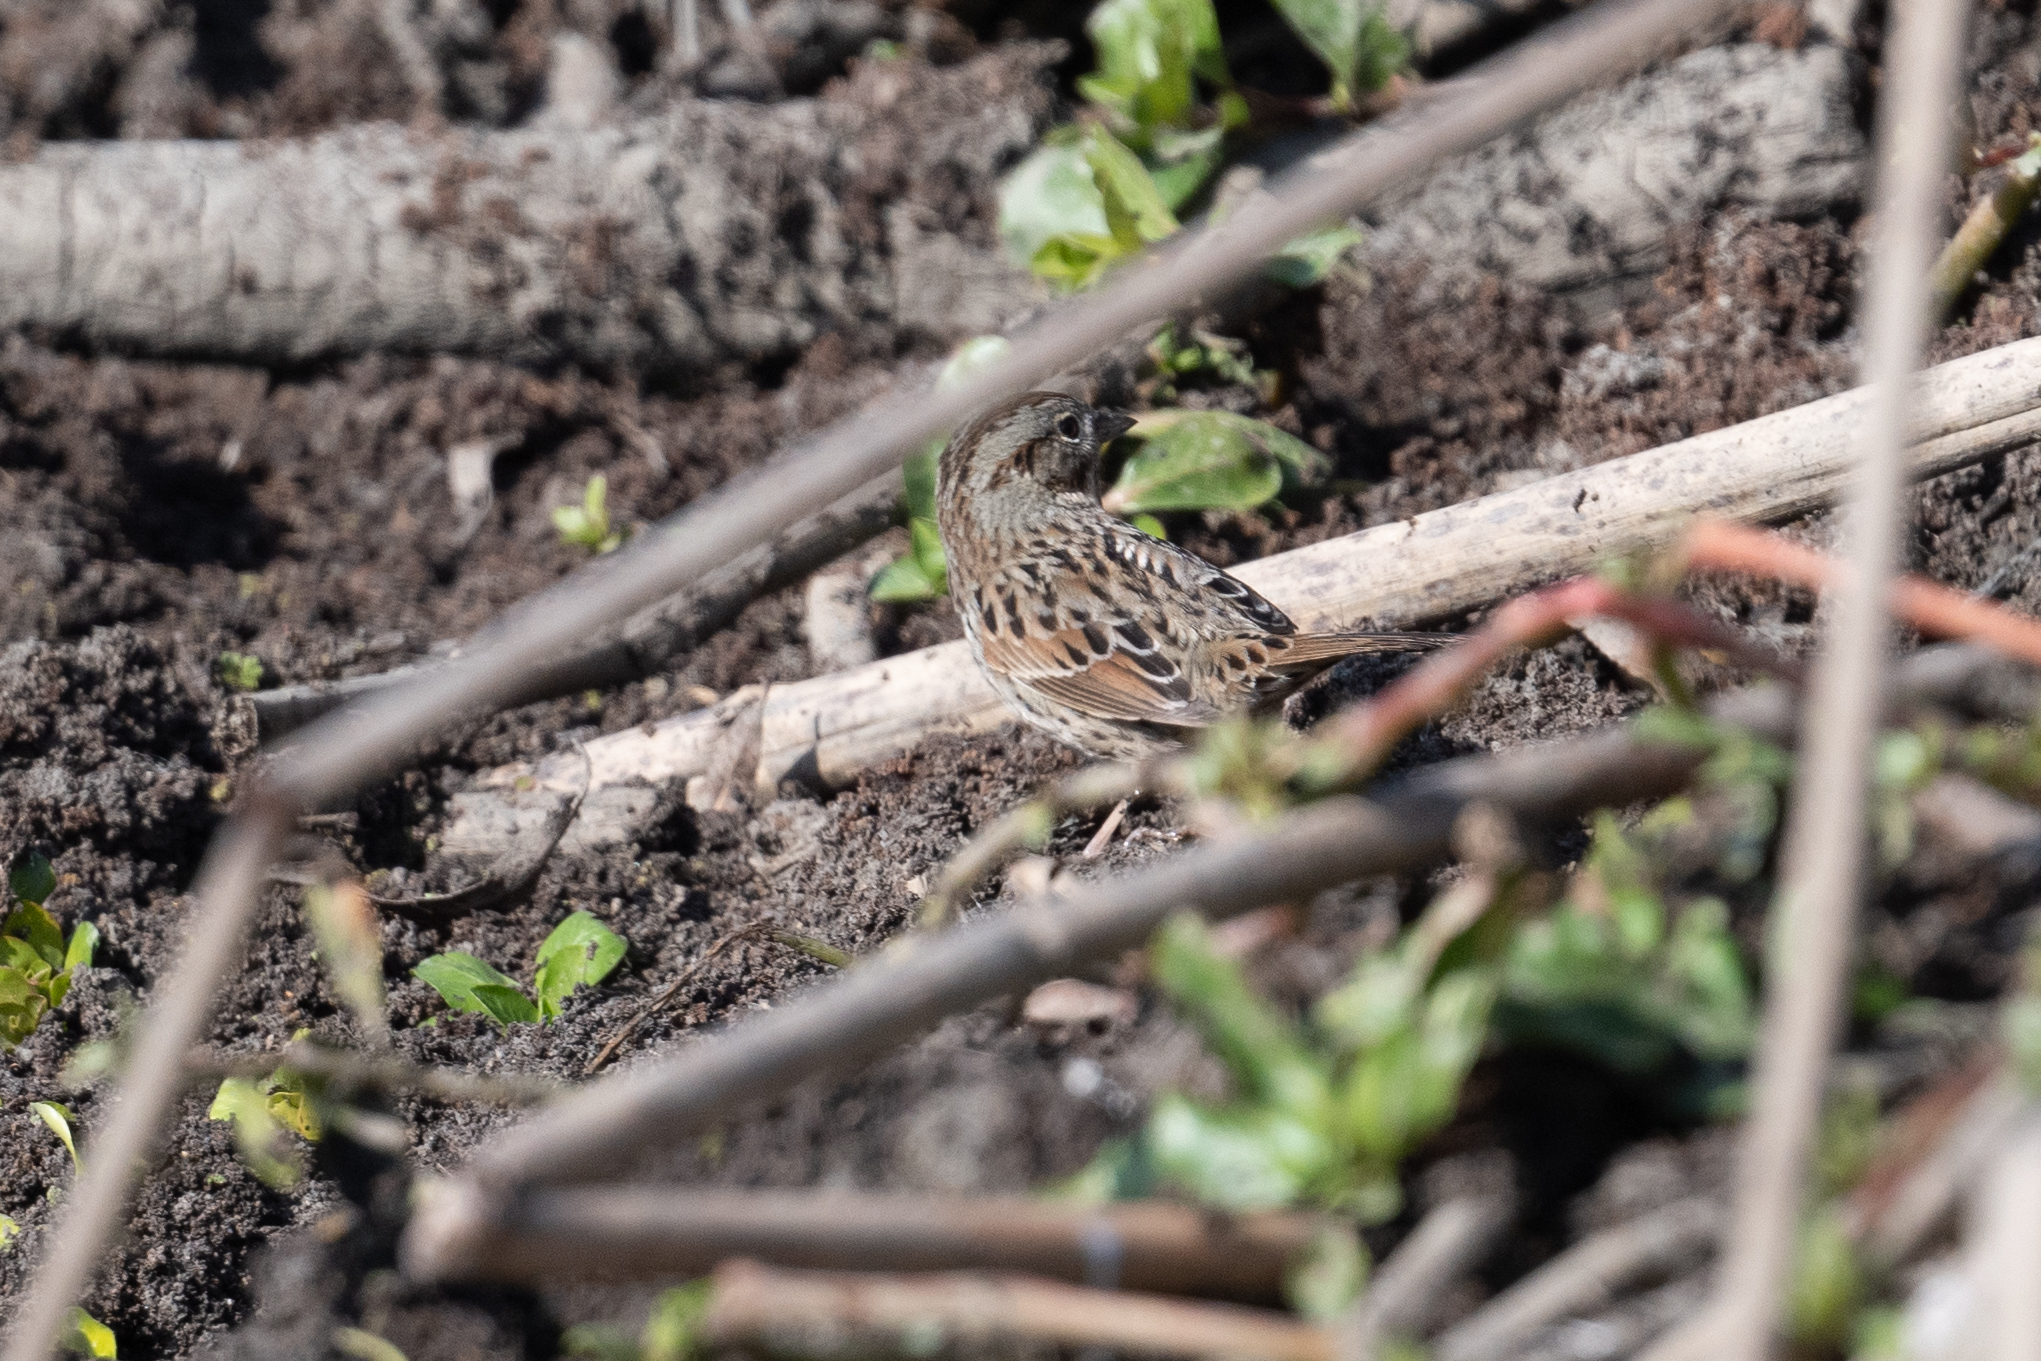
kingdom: Animalia
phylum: Chordata
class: Aves
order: Passeriformes
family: Passerellidae
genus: Melospiza
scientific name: Melospiza melodia
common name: Song sparrow
